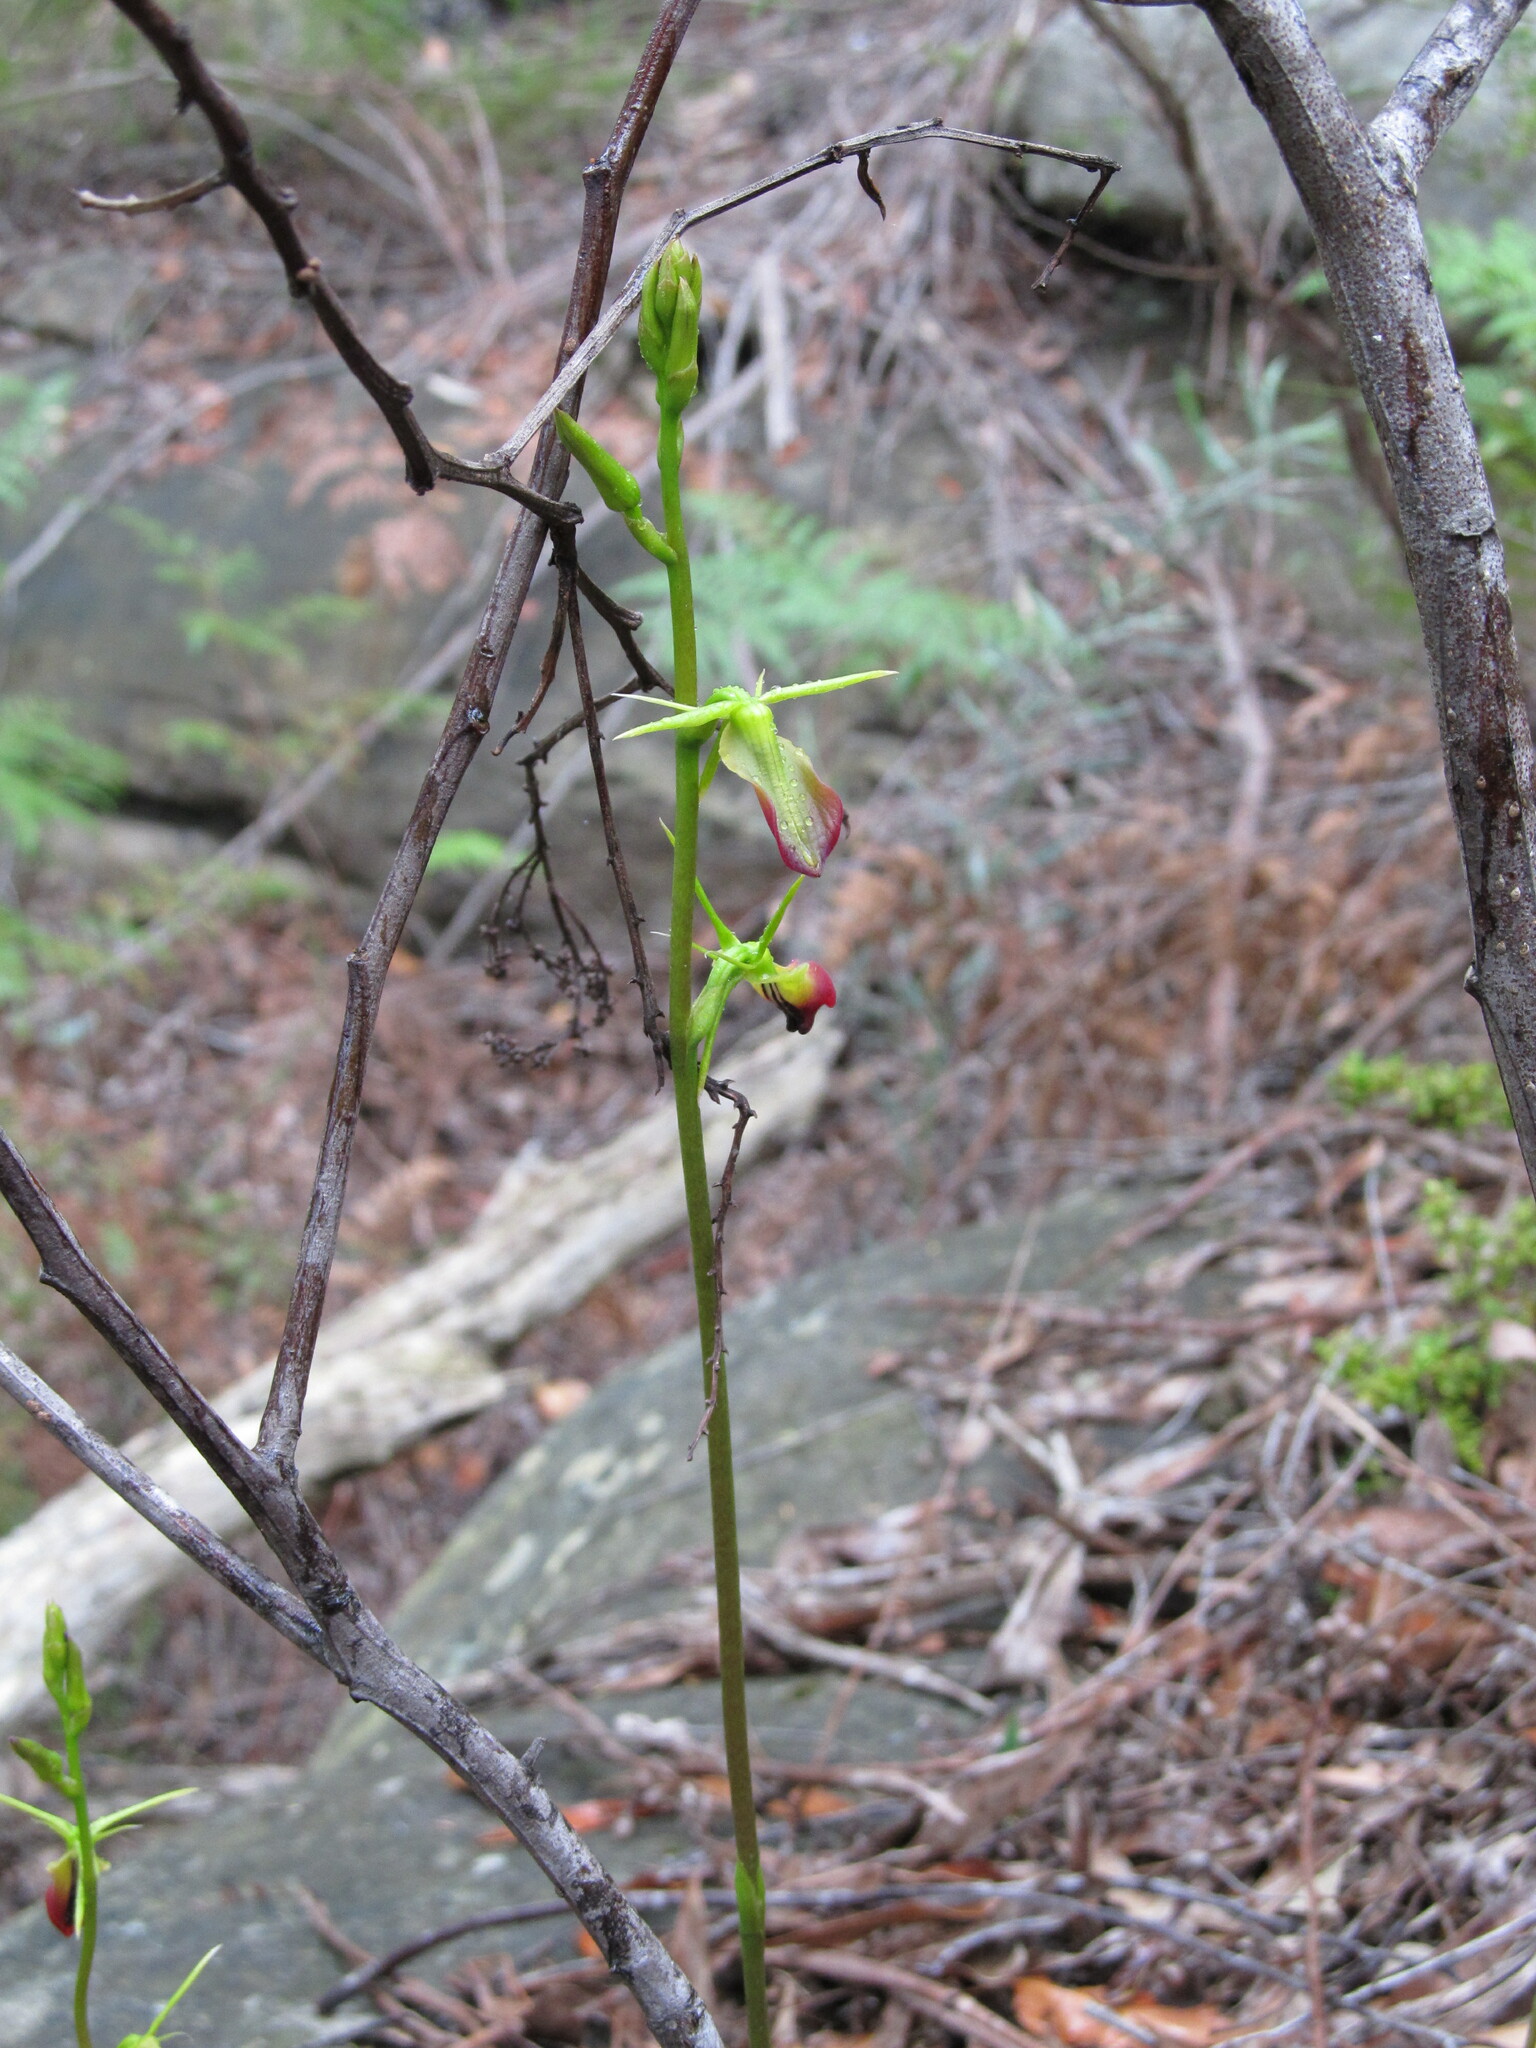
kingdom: Plantae
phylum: Tracheophyta
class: Liliopsida
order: Asparagales
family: Orchidaceae
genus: Cryptostylis
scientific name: Cryptostylis subulata
